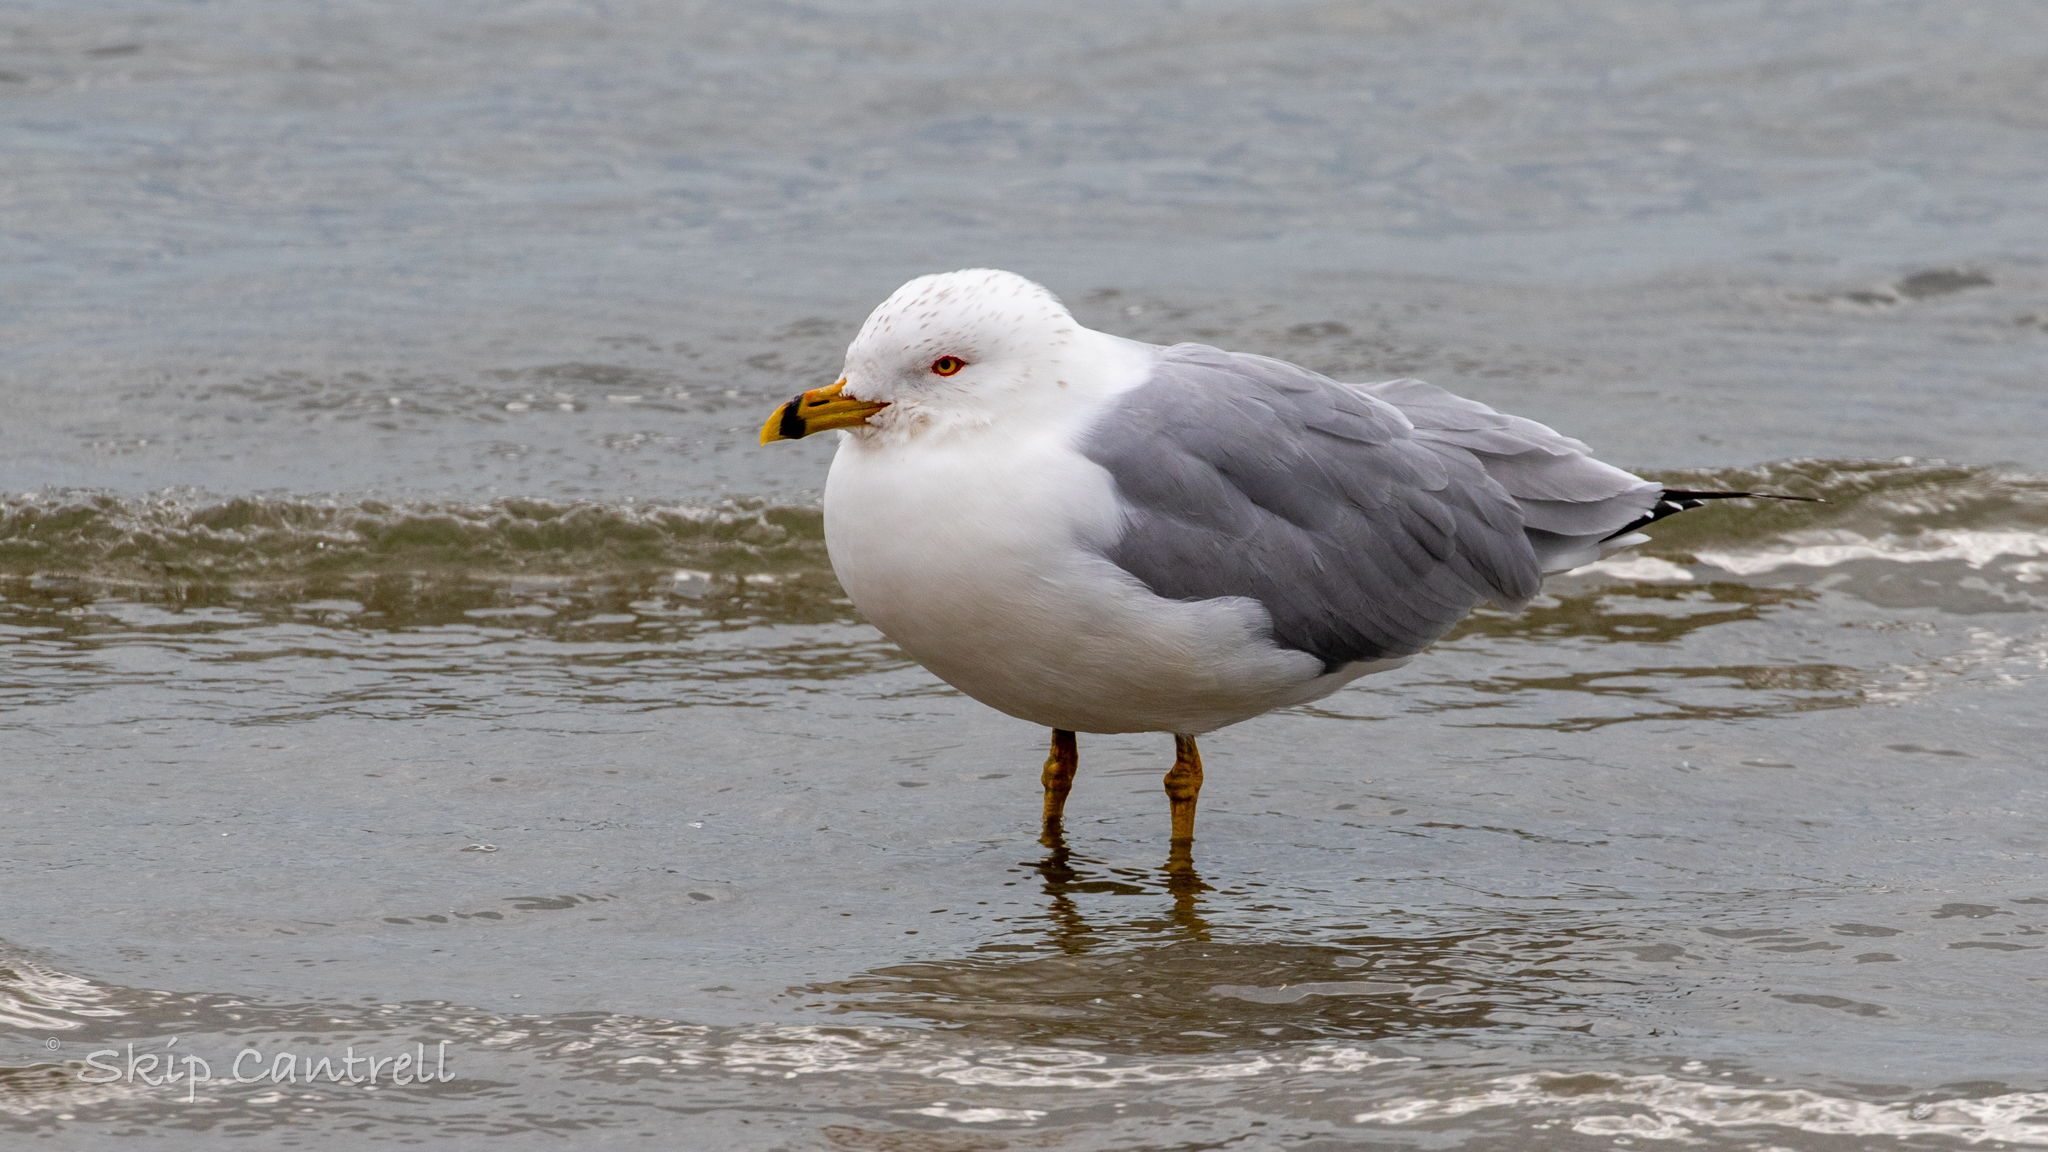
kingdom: Animalia
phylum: Chordata
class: Aves
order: Charadriiformes
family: Laridae
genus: Larus
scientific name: Larus delawarensis
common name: Ring-billed gull
